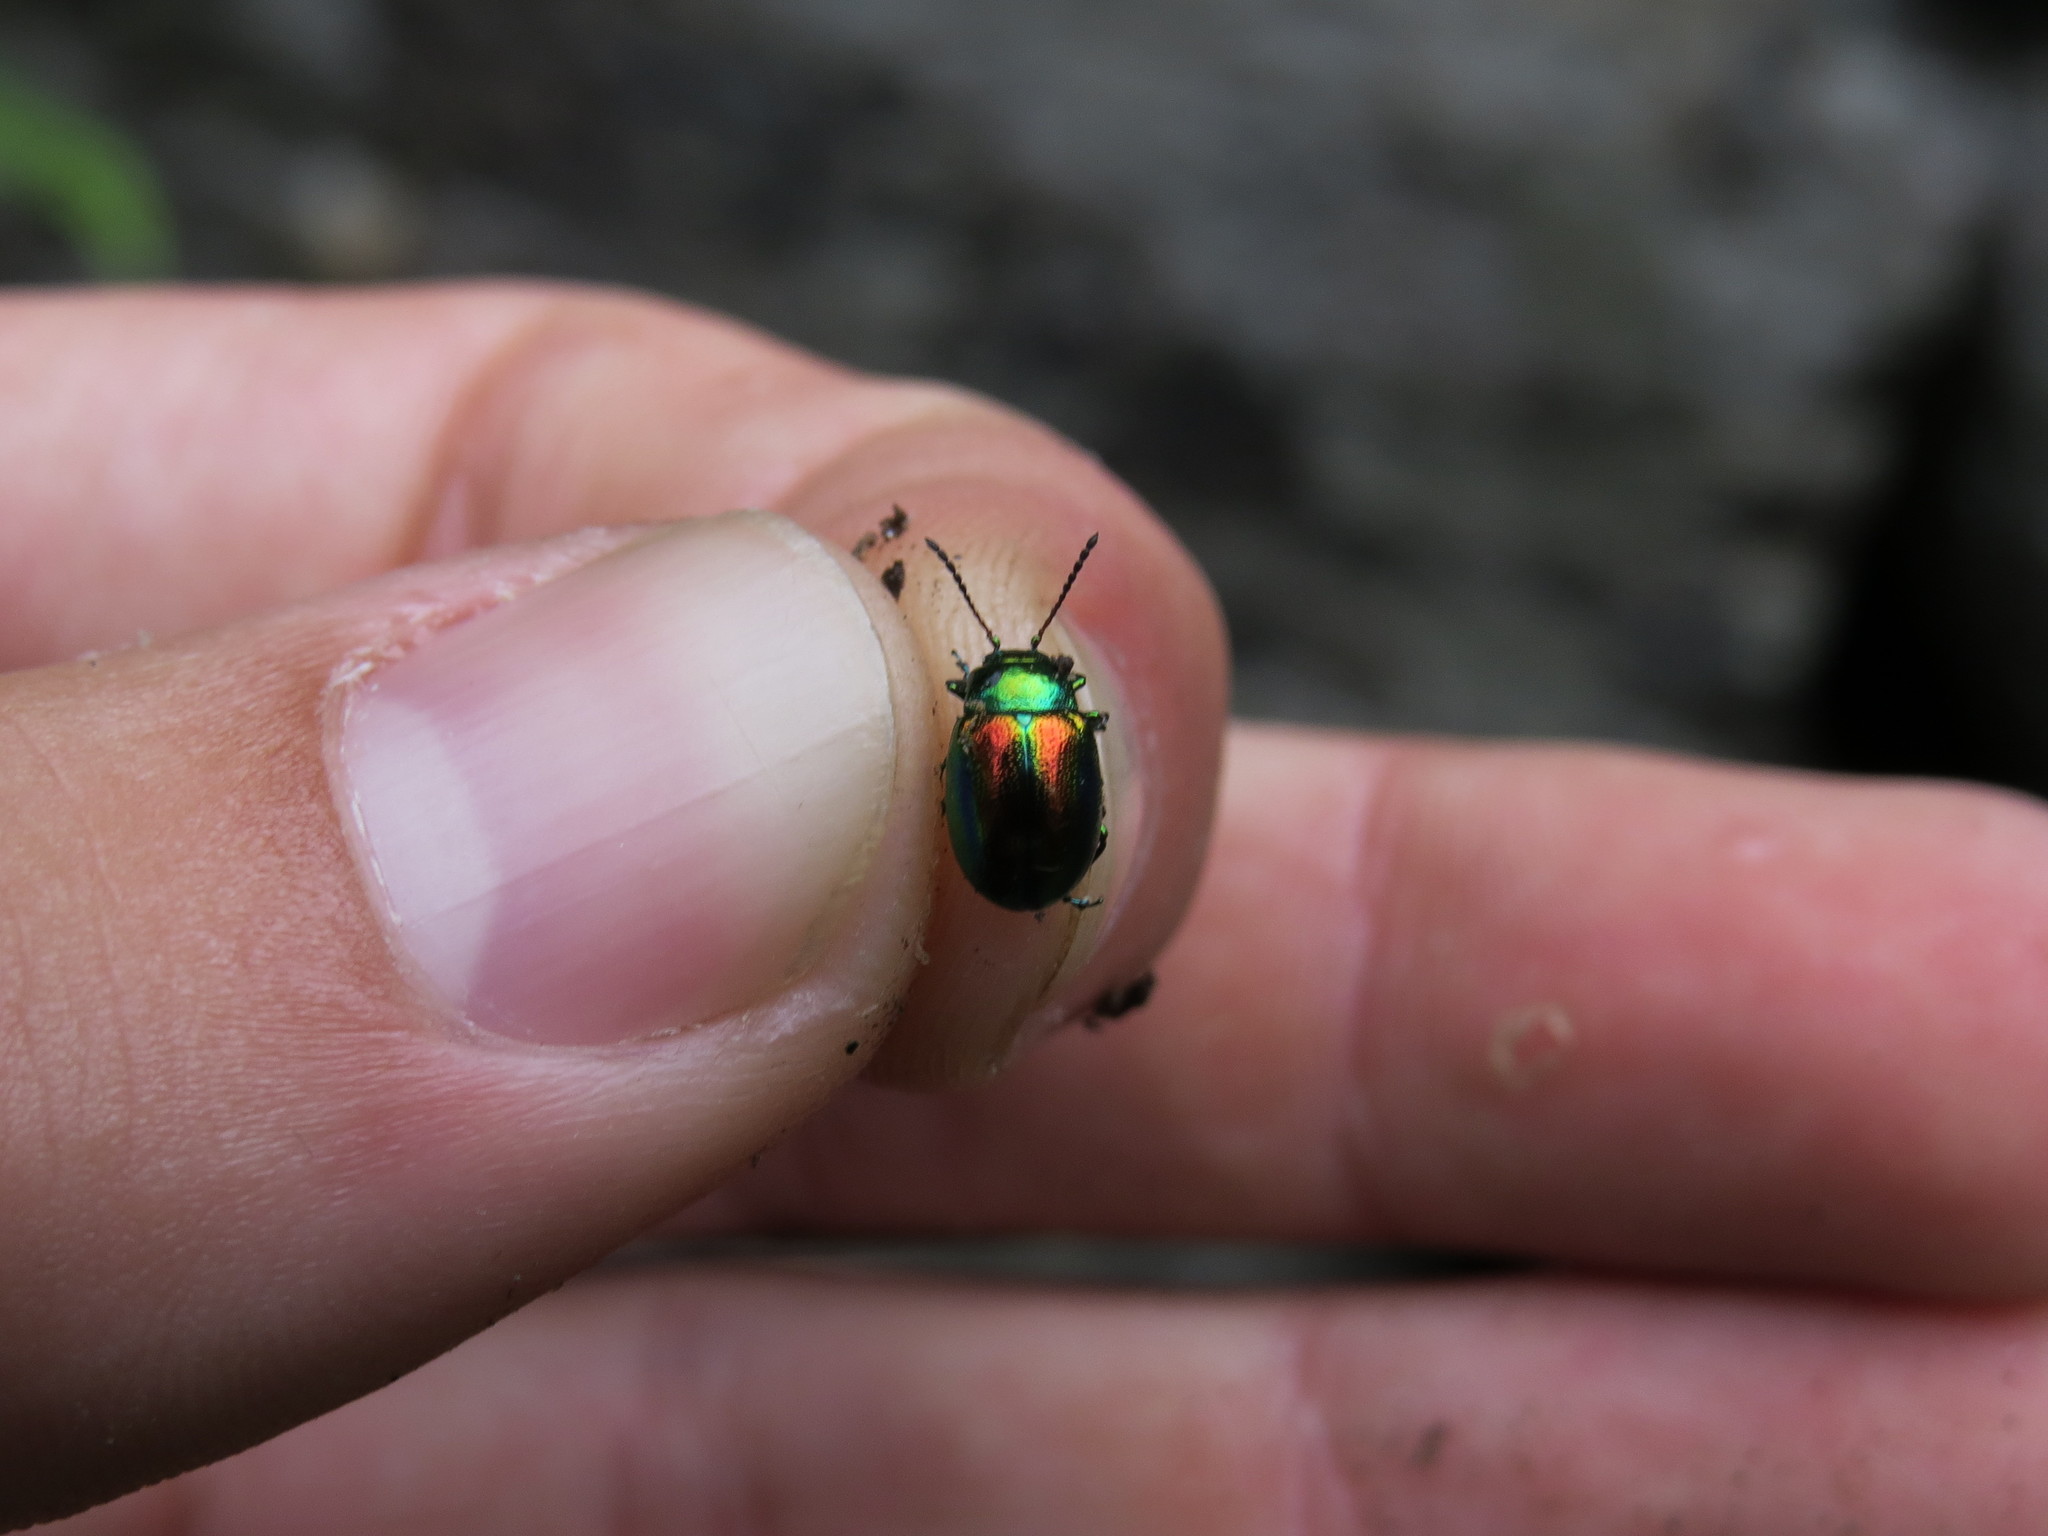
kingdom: Animalia
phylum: Arthropoda
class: Insecta
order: Coleoptera
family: Chrysomelidae
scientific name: Chrysomelidae
